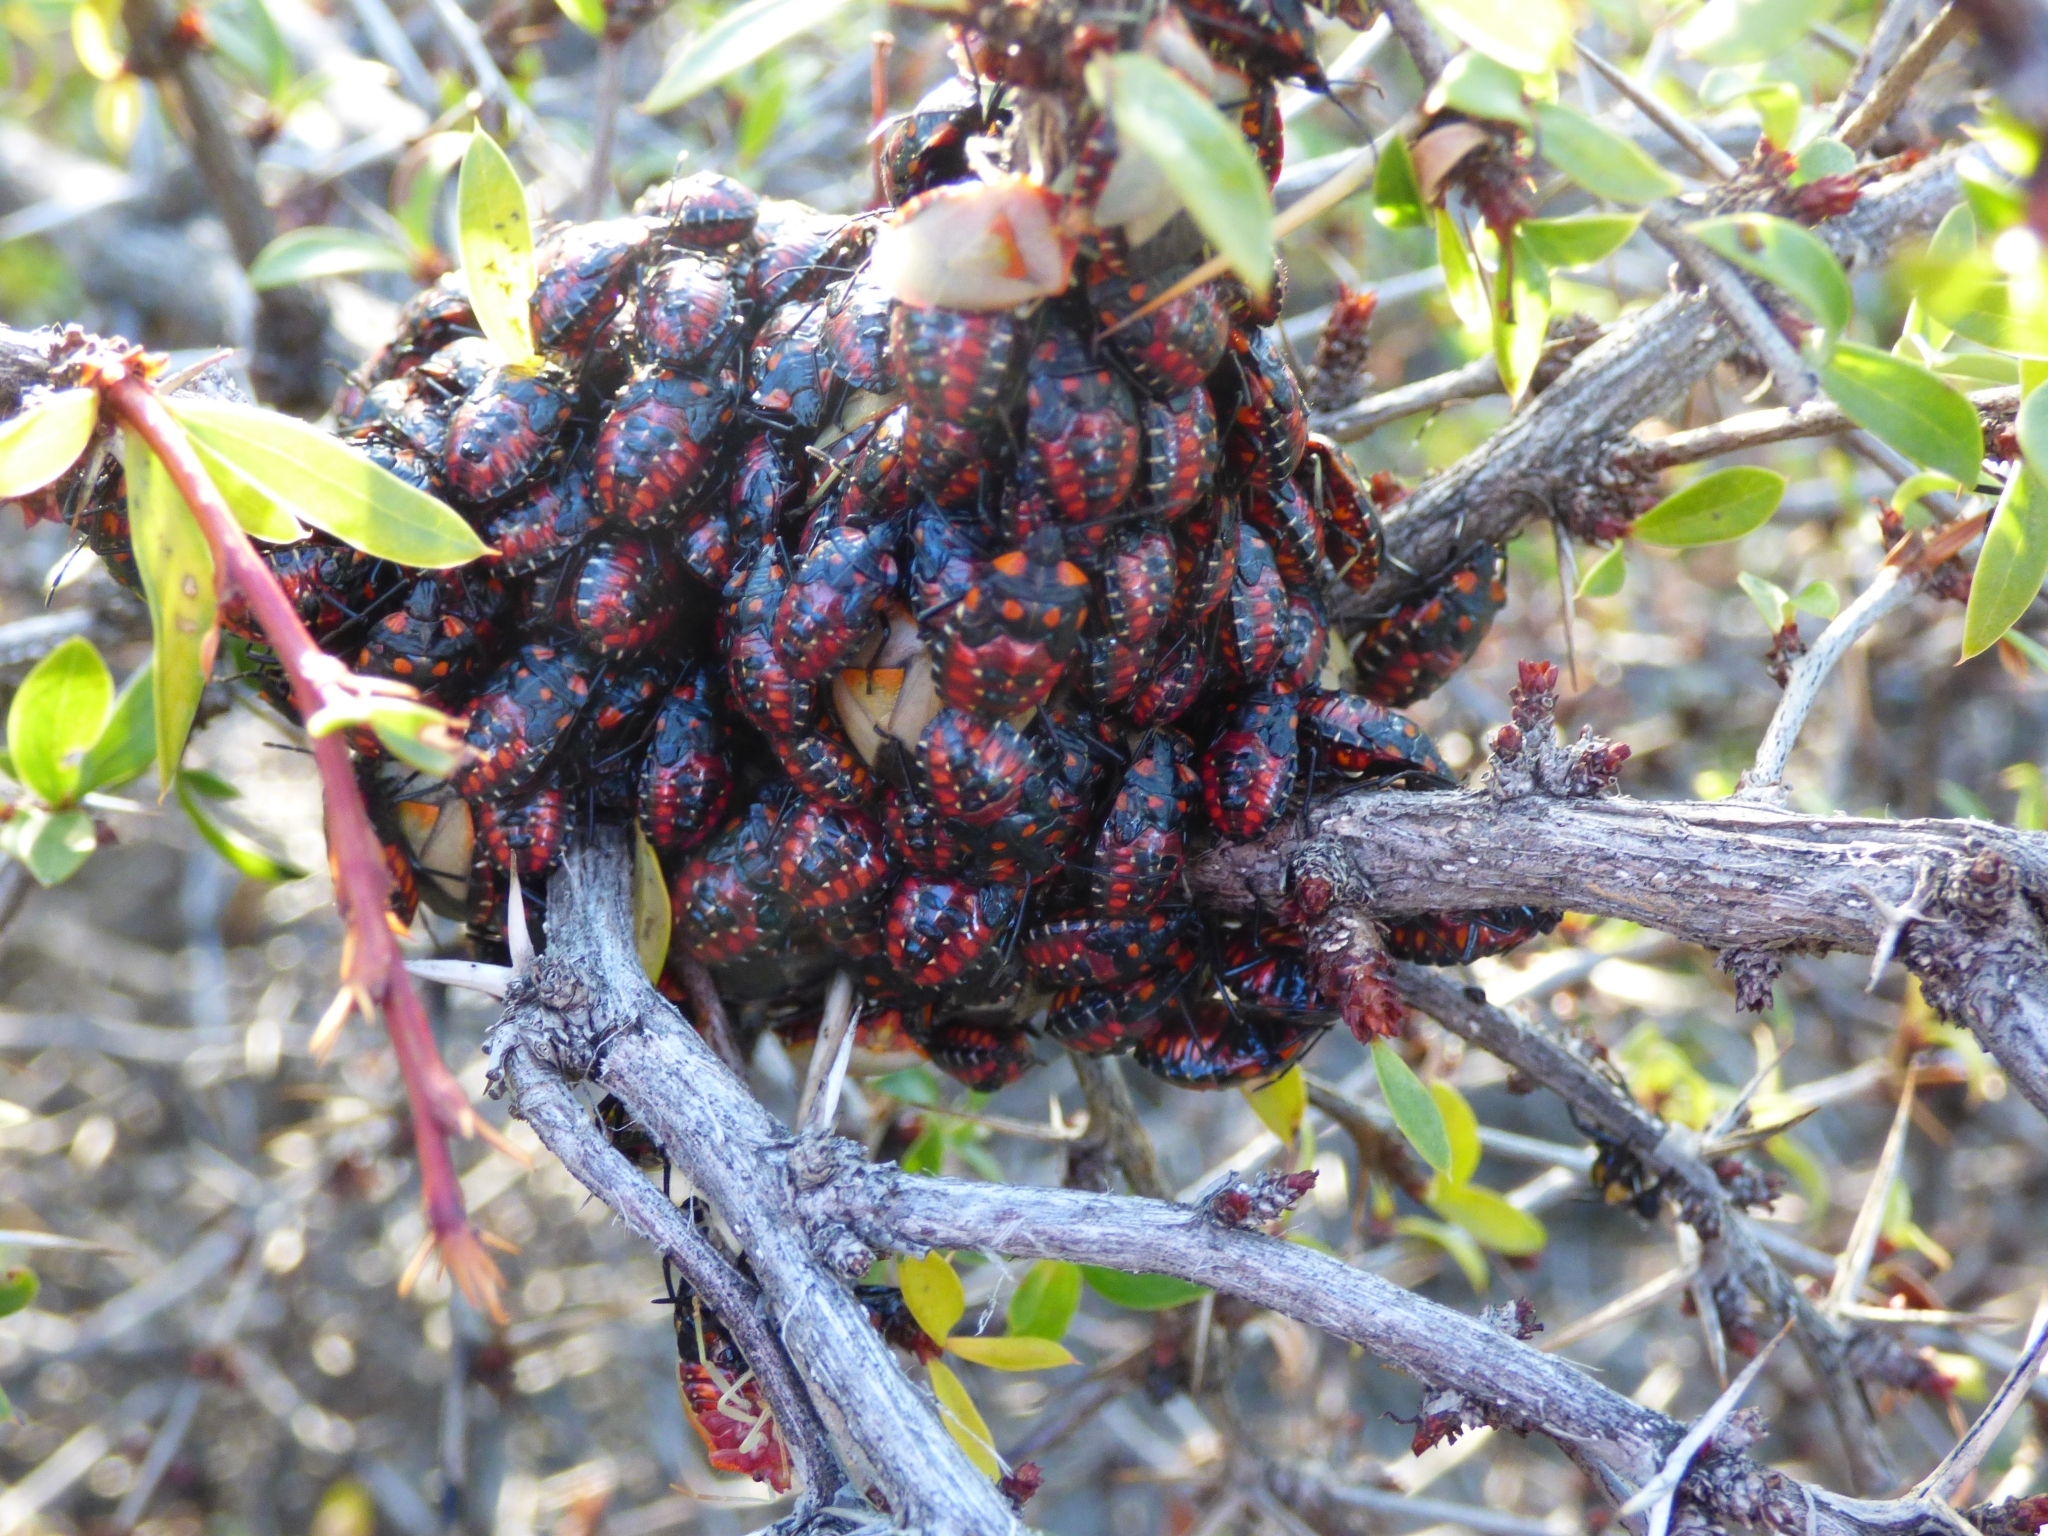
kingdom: Animalia
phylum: Arthropoda
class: Insecta
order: Hemiptera
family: Acanthosomatidae
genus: Phorbanta
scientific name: Phorbanta variabilis
